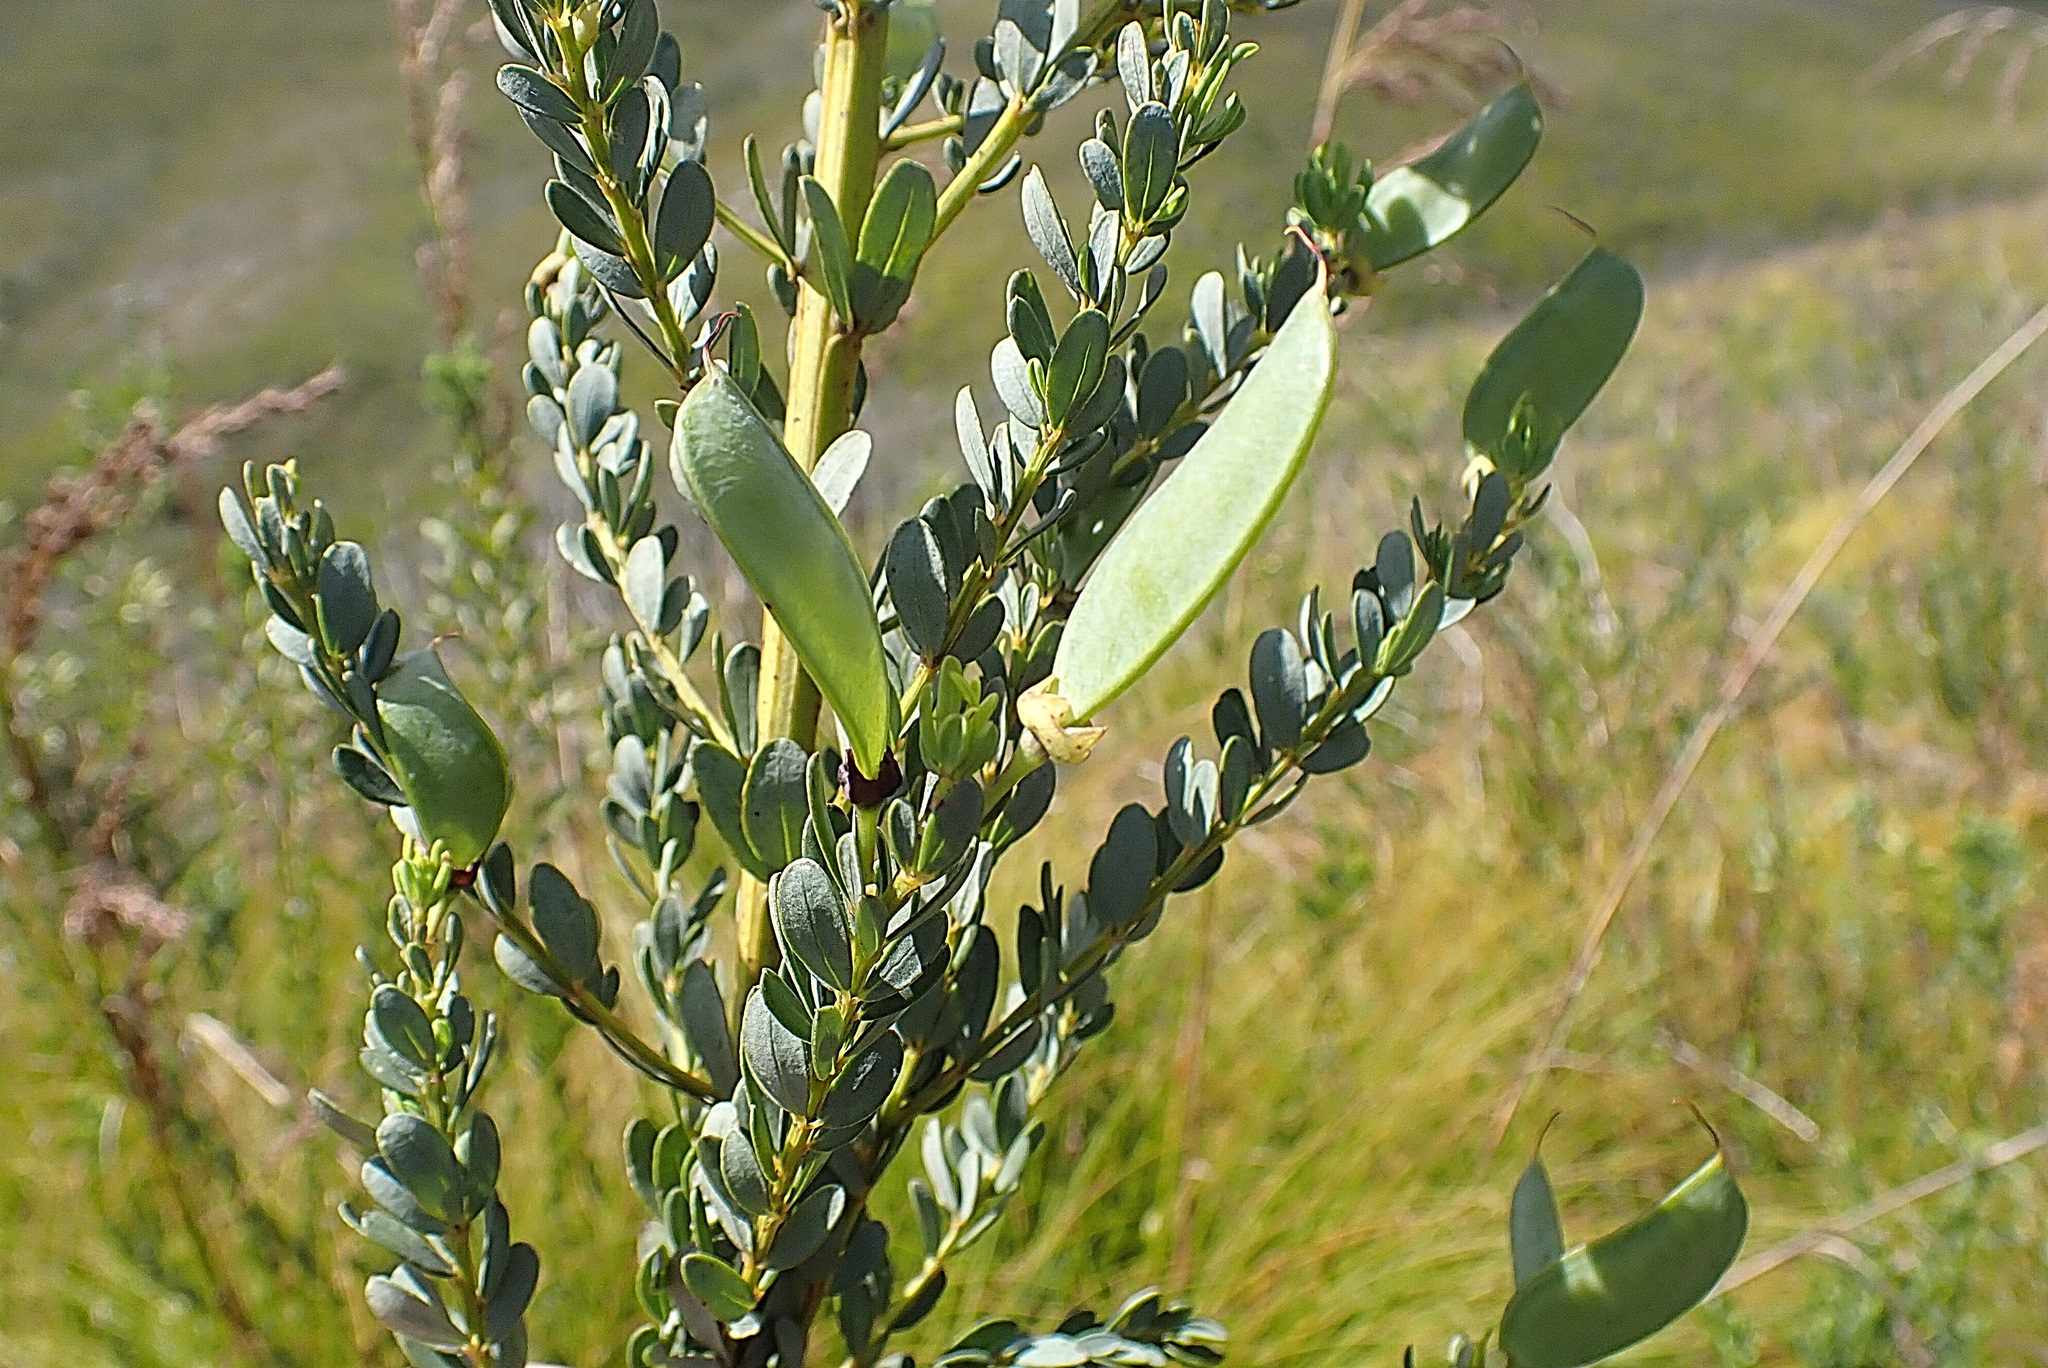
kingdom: Plantae
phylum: Tracheophyta
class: Magnoliopsida
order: Fabales
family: Fabaceae
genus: Cyclopia
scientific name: Cyclopia subternata
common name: Honeybush tea
